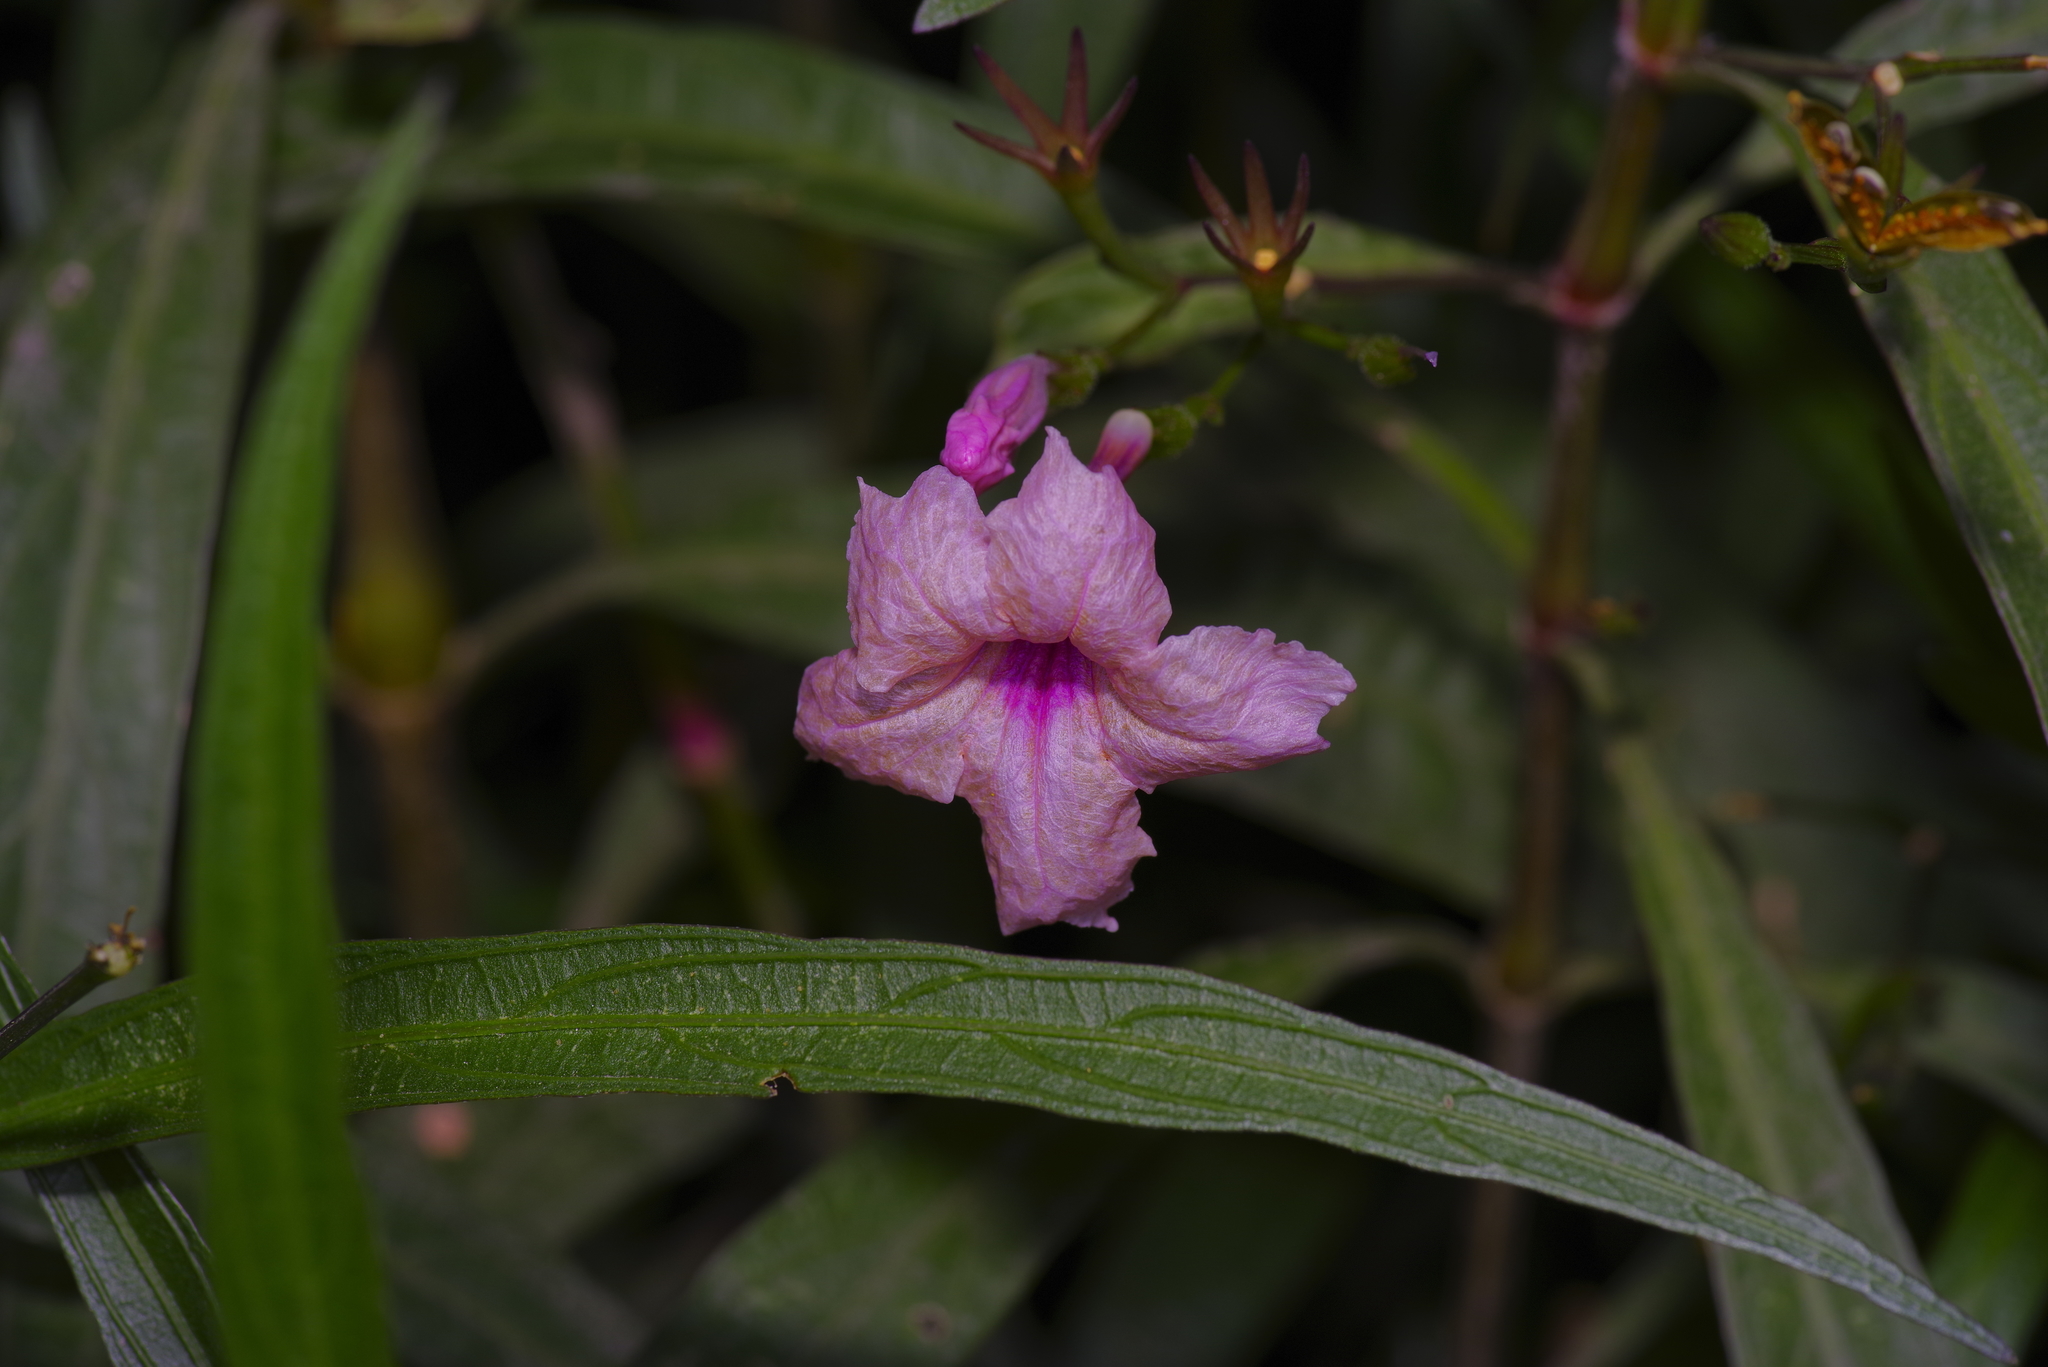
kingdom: Plantae
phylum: Tracheophyta
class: Magnoliopsida
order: Lamiales
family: Acanthaceae
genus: Ruellia
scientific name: Ruellia simplex
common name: Softseed wild petunia
